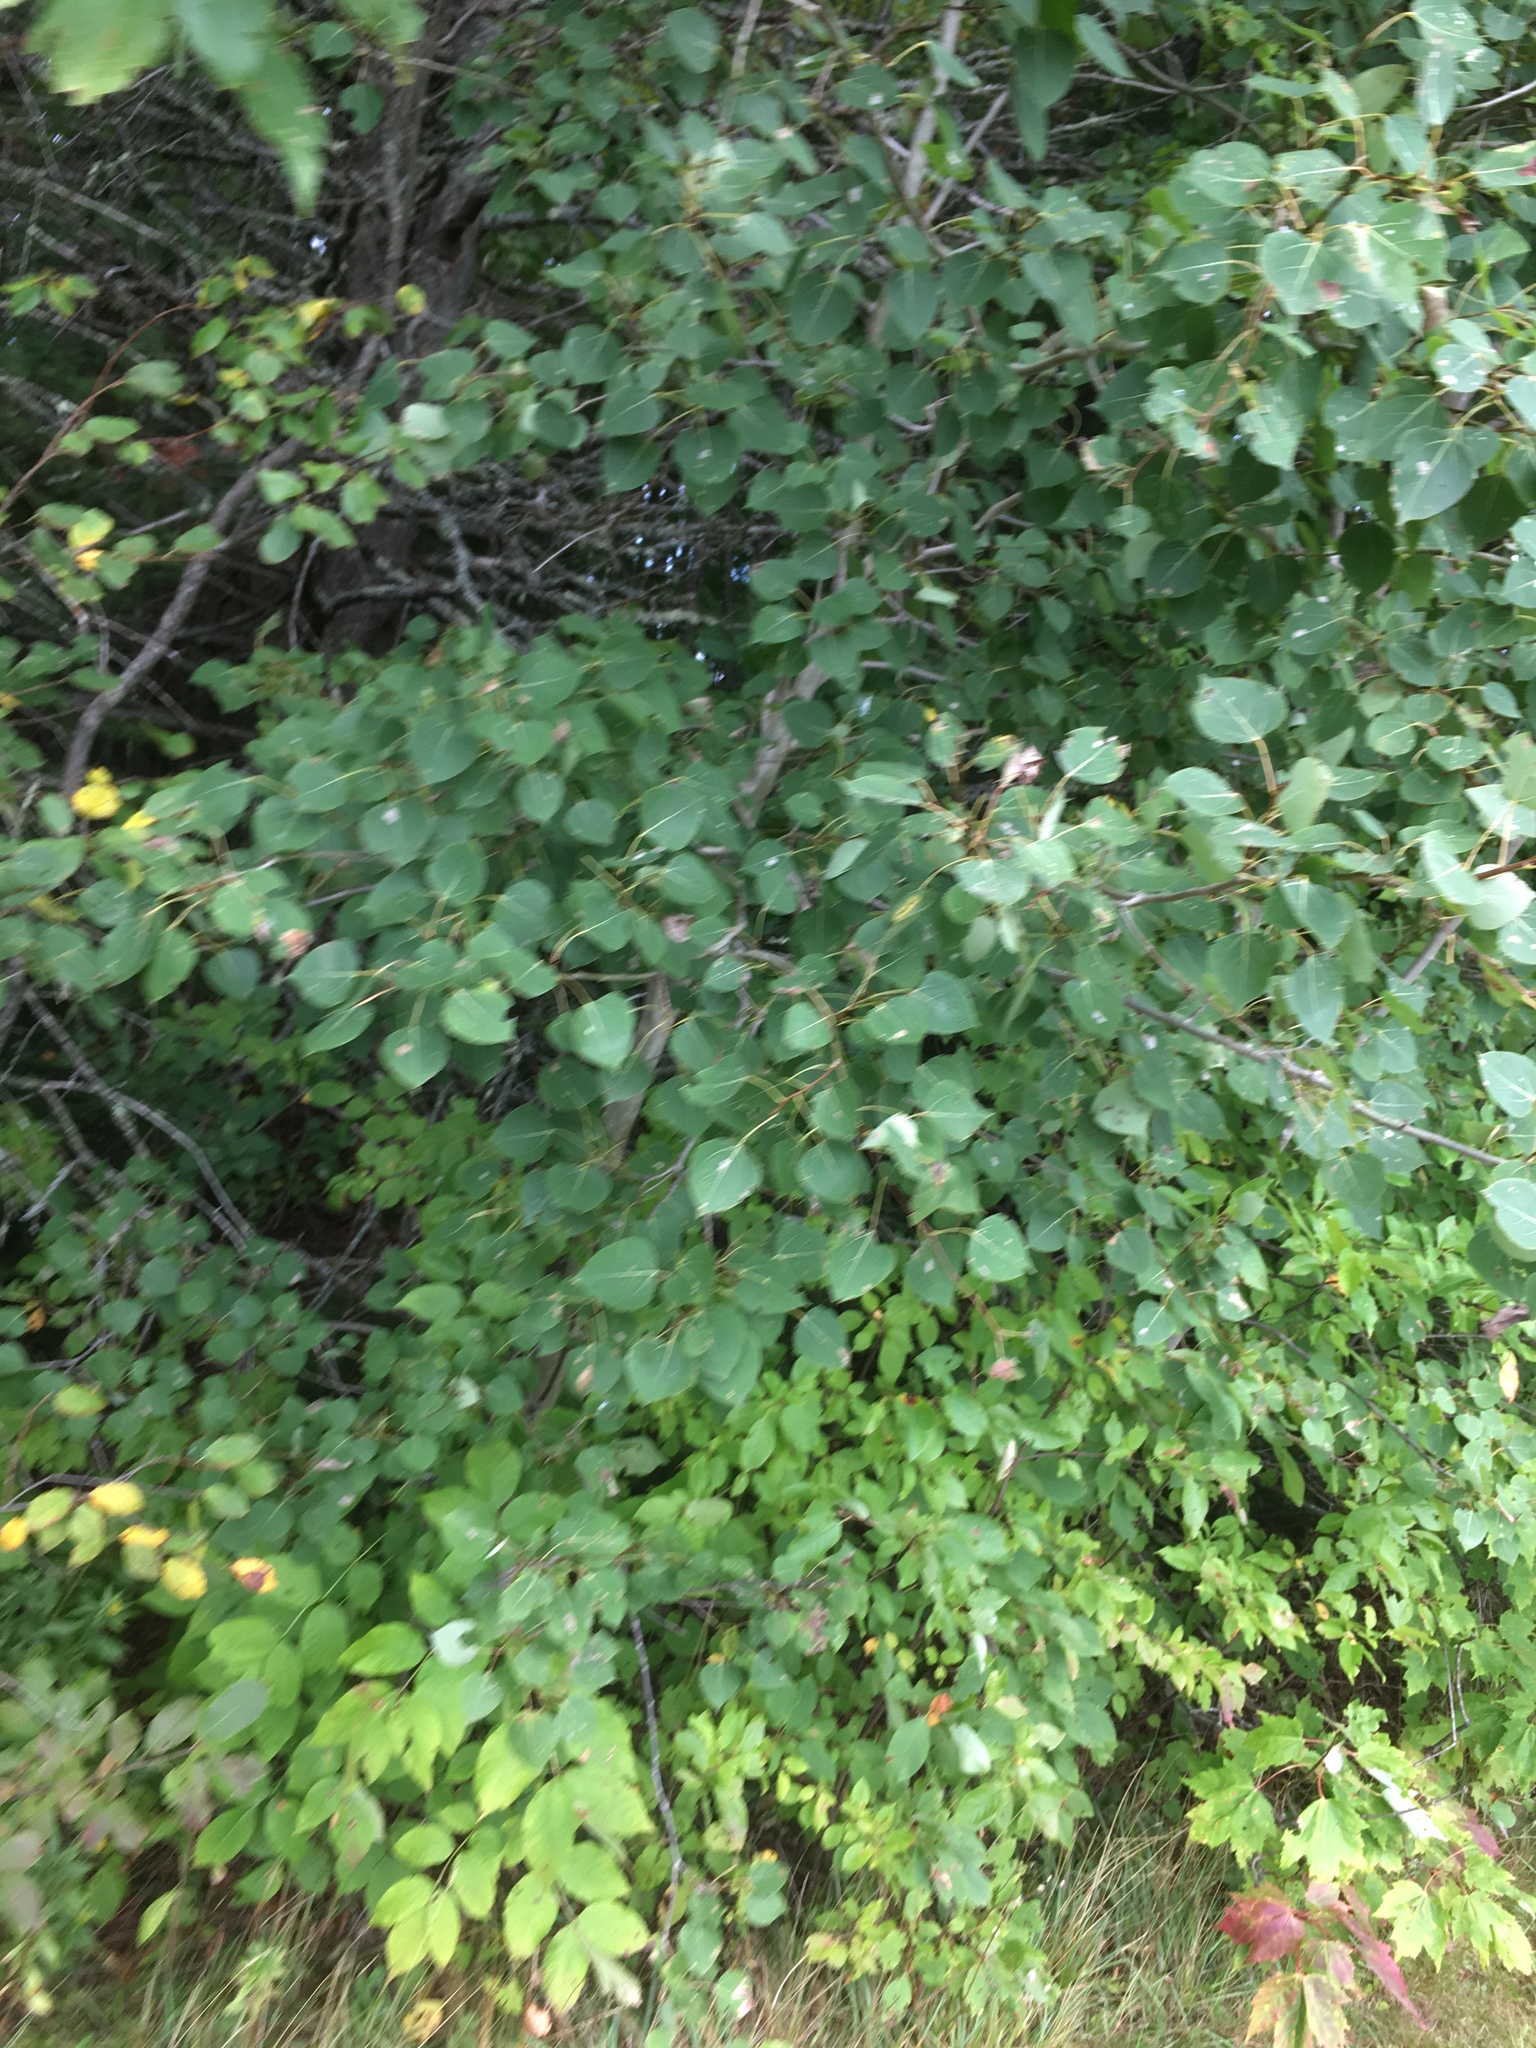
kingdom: Plantae
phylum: Tracheophyta
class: Magnoliopsida
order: Malpighiales
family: Salicaceae
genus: Populus
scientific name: Populus tremuloides
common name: Quaking aspen
